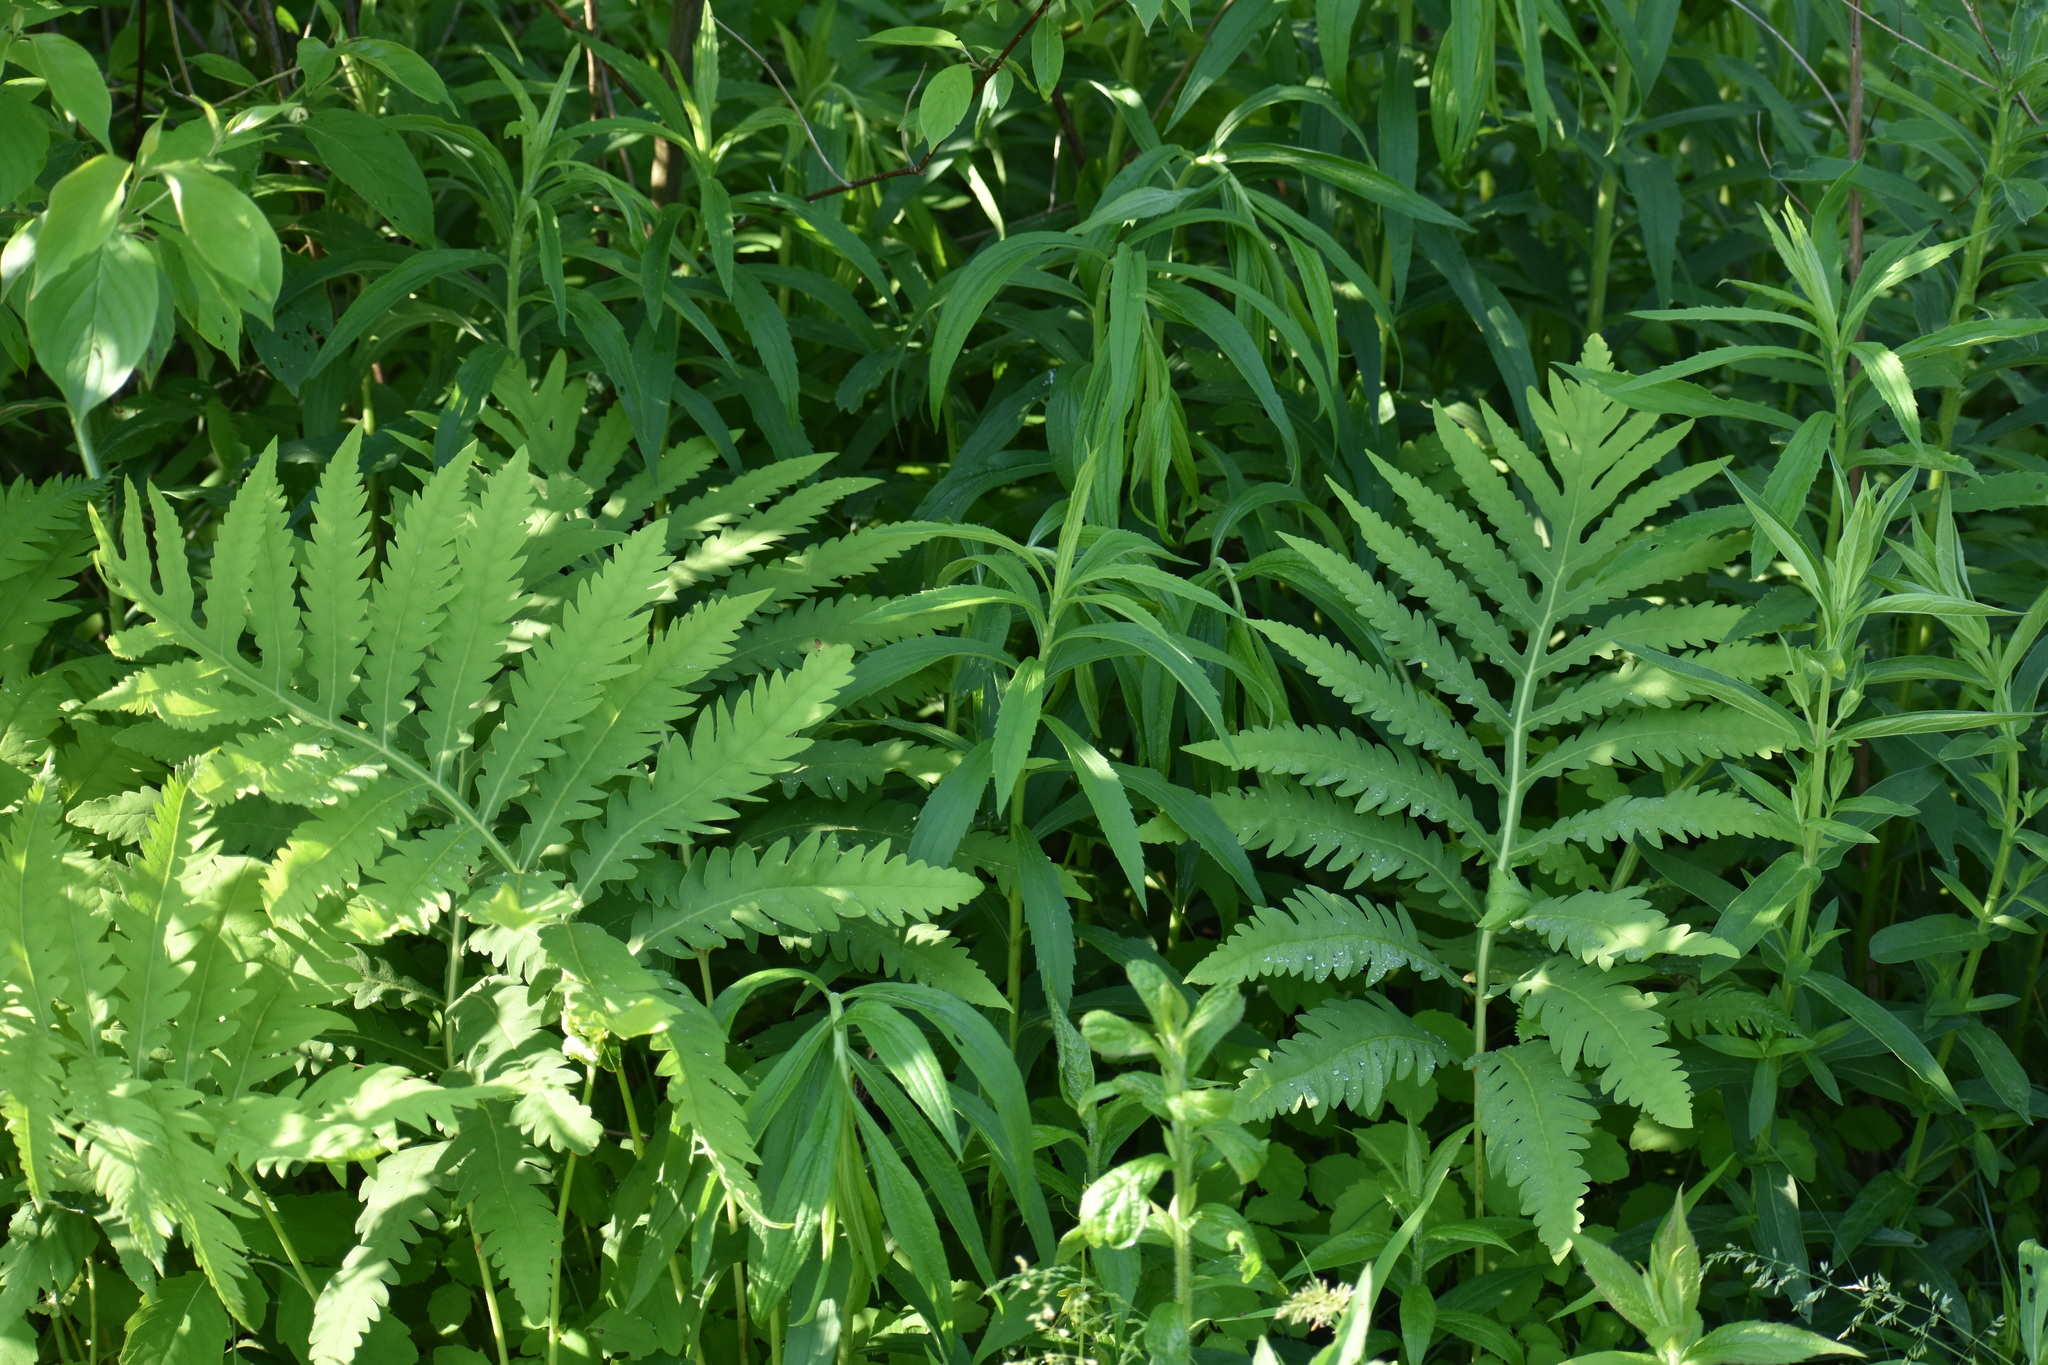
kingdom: Plantae
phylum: Tracheophyta
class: Polypodiopsida
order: Polypodiales
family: Onocleaceae
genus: Onoclea
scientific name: Onoclea sensibilis
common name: Sensitive fern
